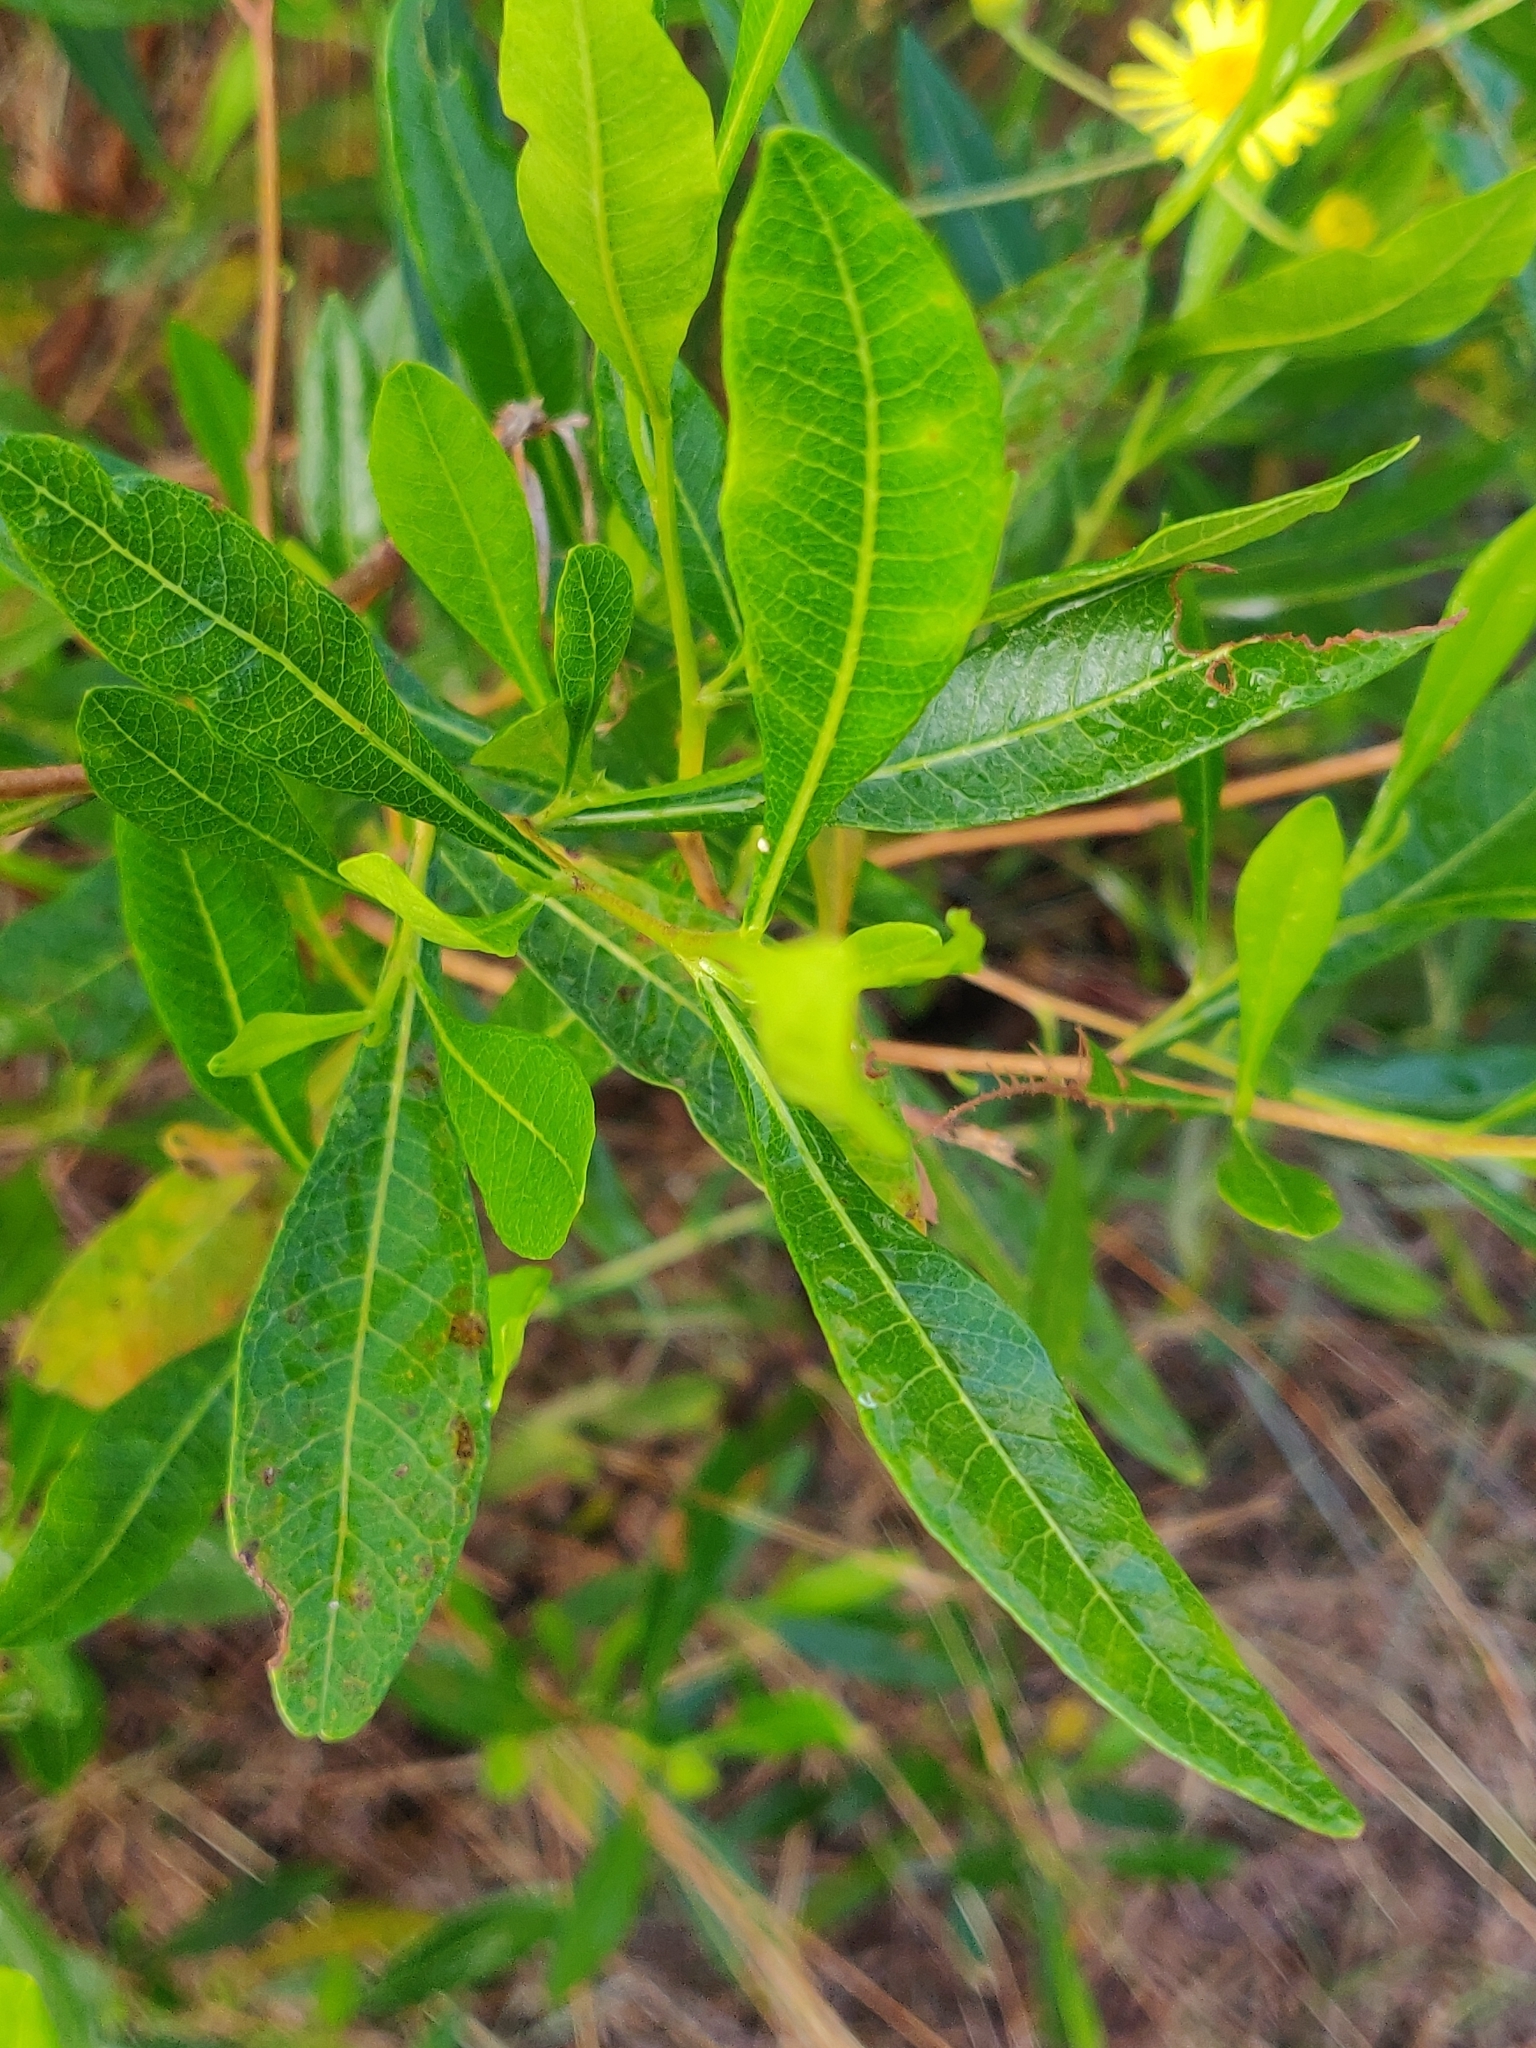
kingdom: Plantae
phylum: Tracheophyta
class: Magnoliopsida
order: Sapindales
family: Sapindaceae
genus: Dodonaea
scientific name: Dodonaea viscosa
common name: Hopbush
